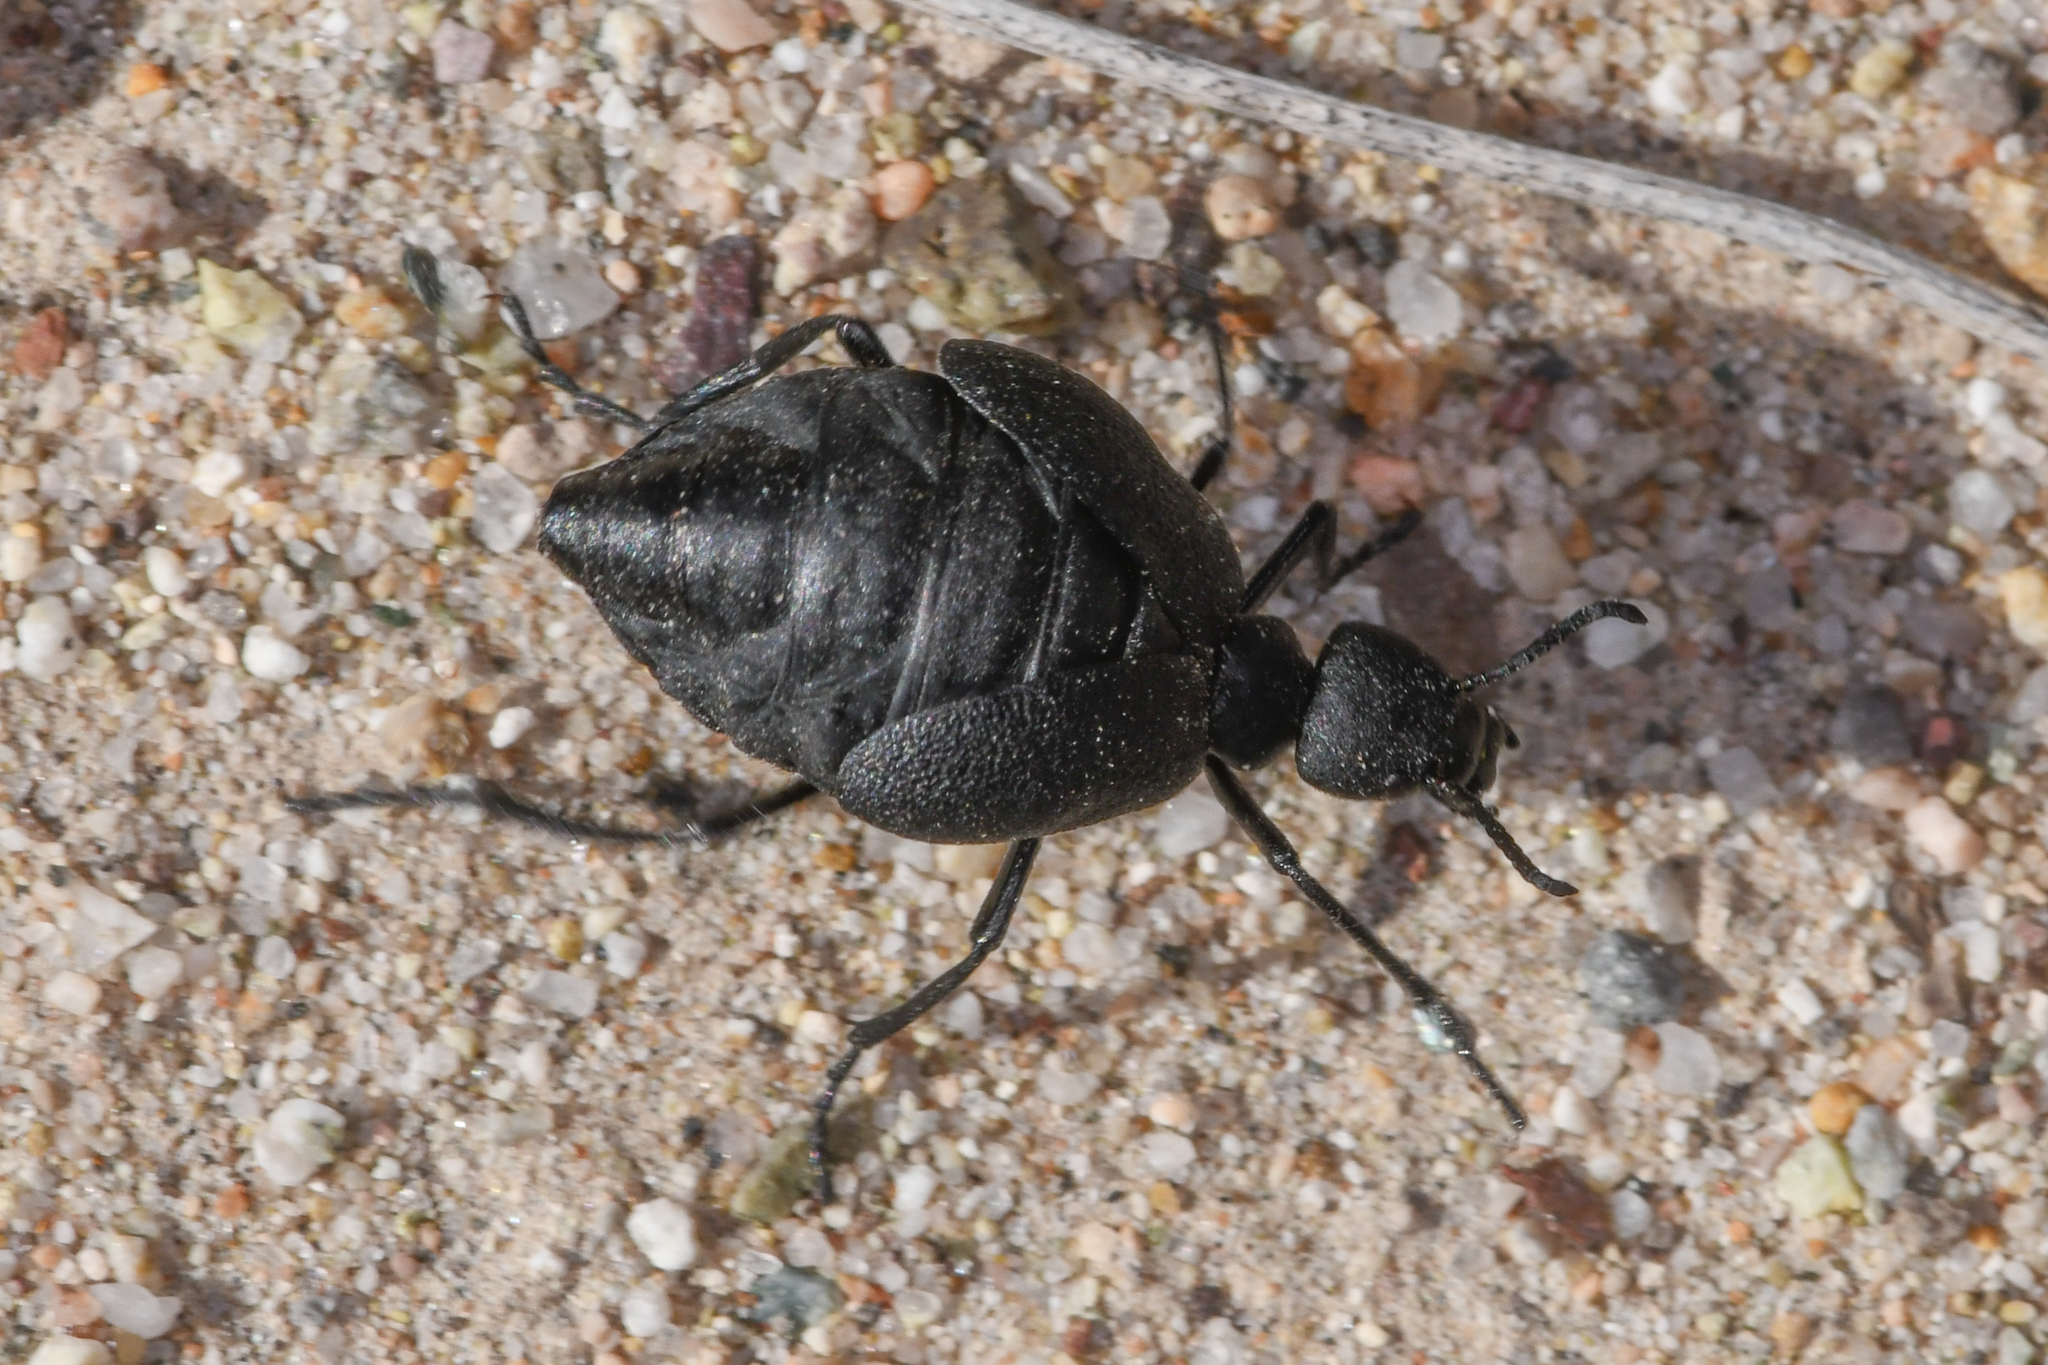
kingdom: Animalia
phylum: Arthropoda
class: Insecta
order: Coleoptera
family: Meloidae
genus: Cordylospasta
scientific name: Cordylospasta opaca
